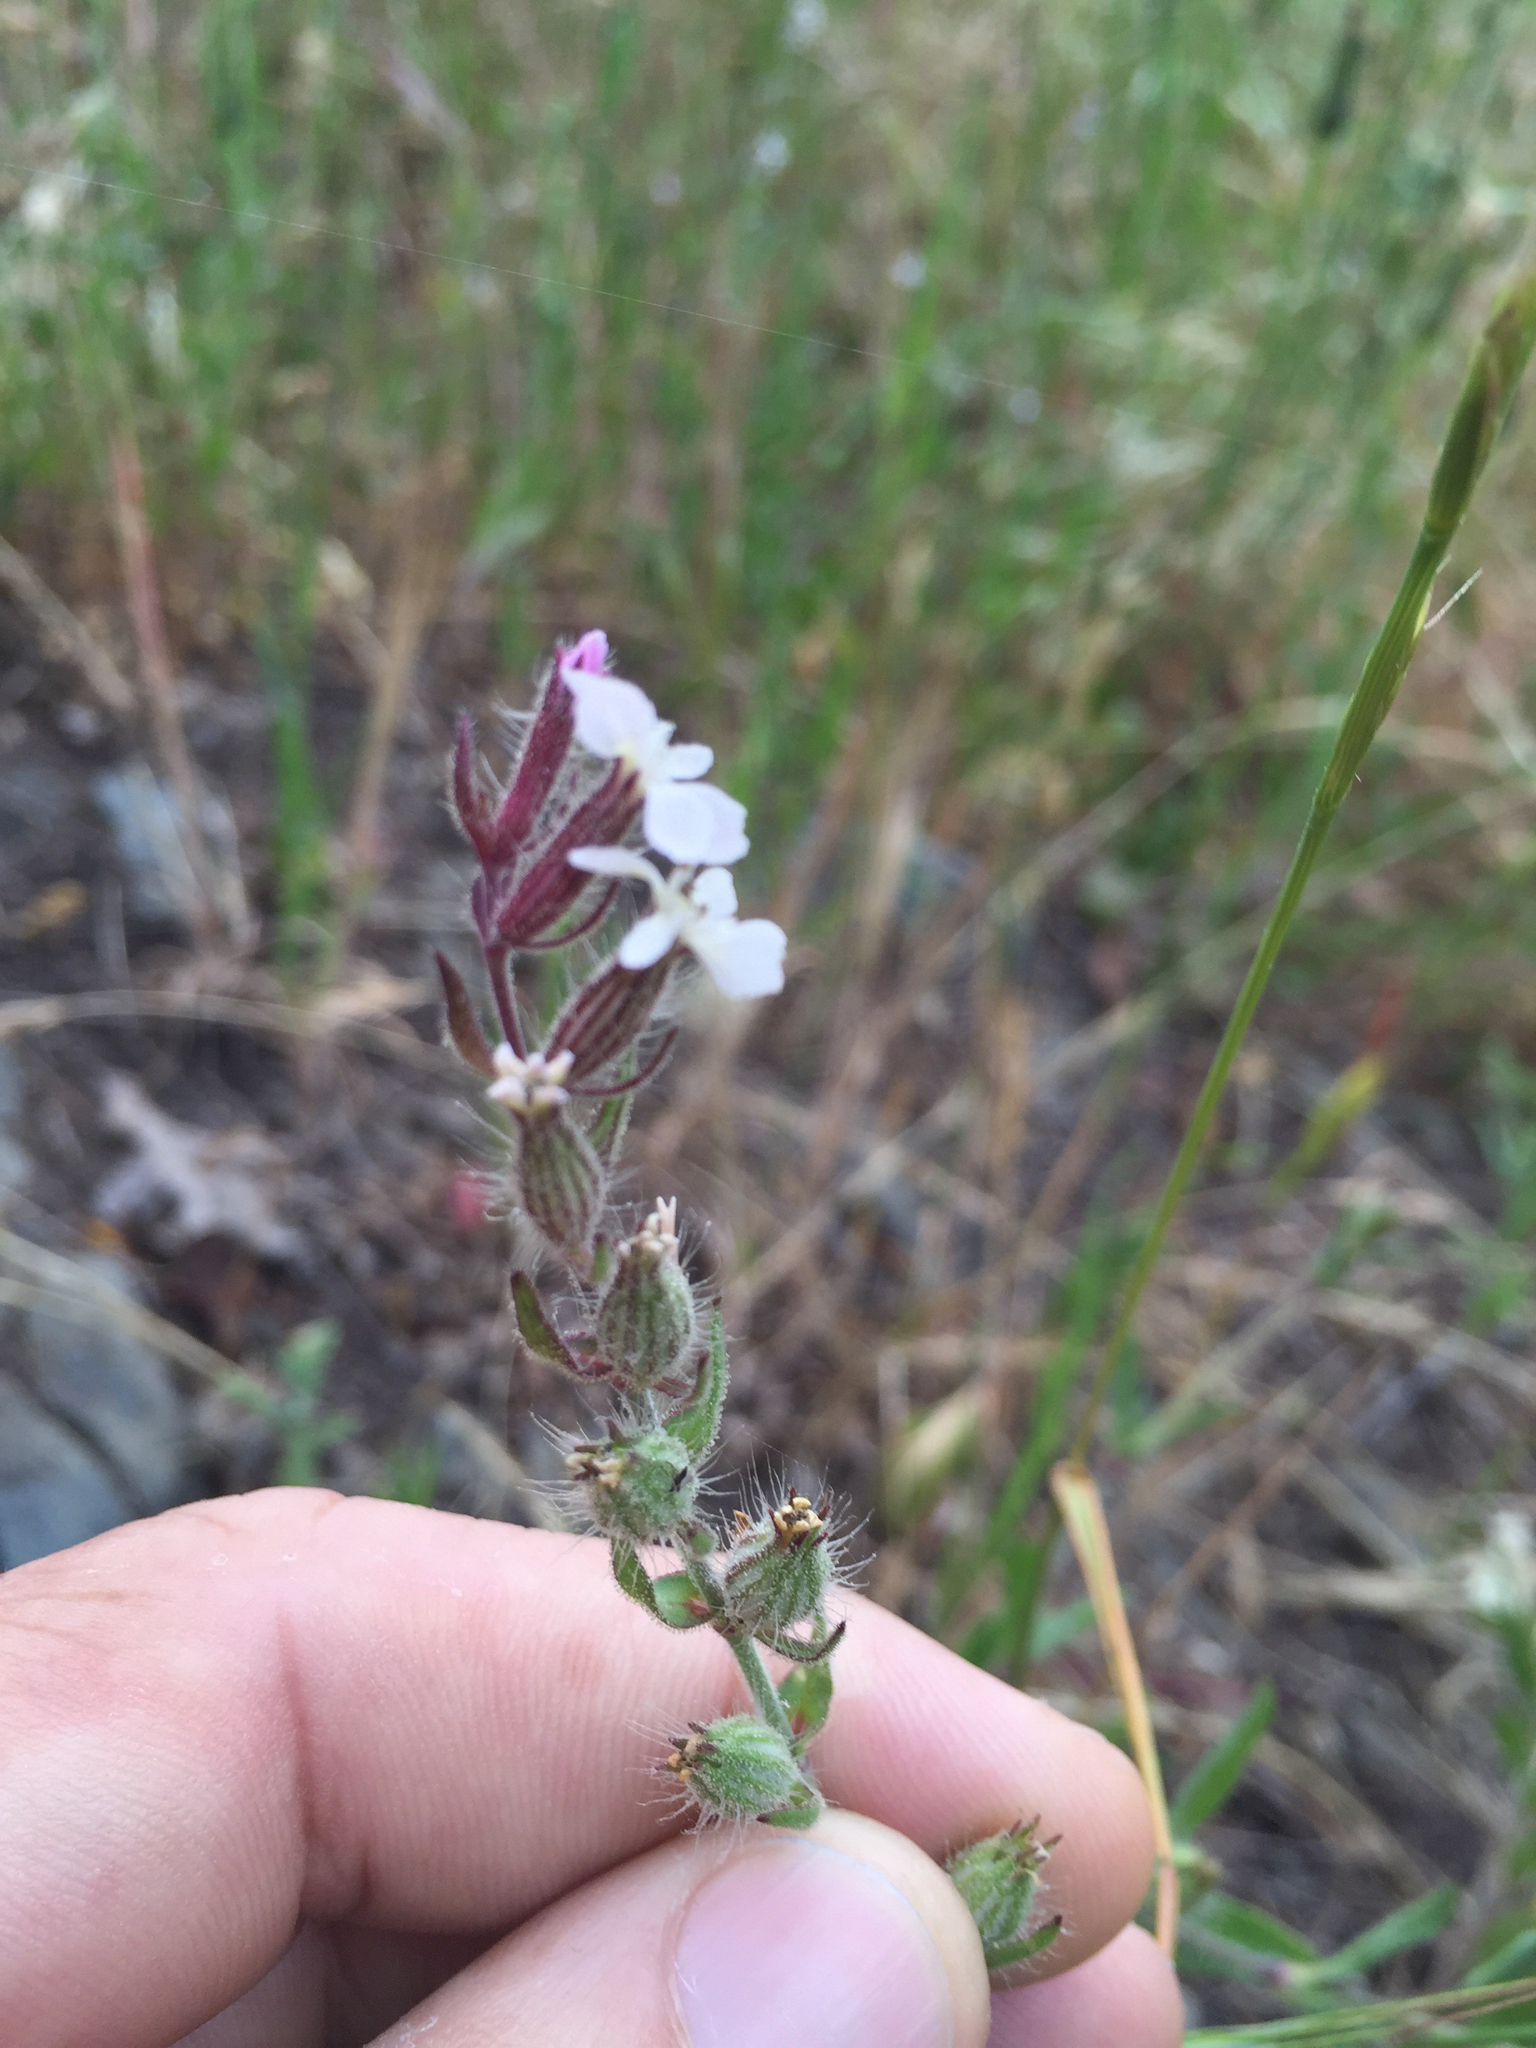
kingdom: Plantae
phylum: Tracheophyta
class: Magnoliopsida
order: Caryophyllales
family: Caryophyllaceae
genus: Silene
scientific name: Silene gallica
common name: Small-flowered catchfly
